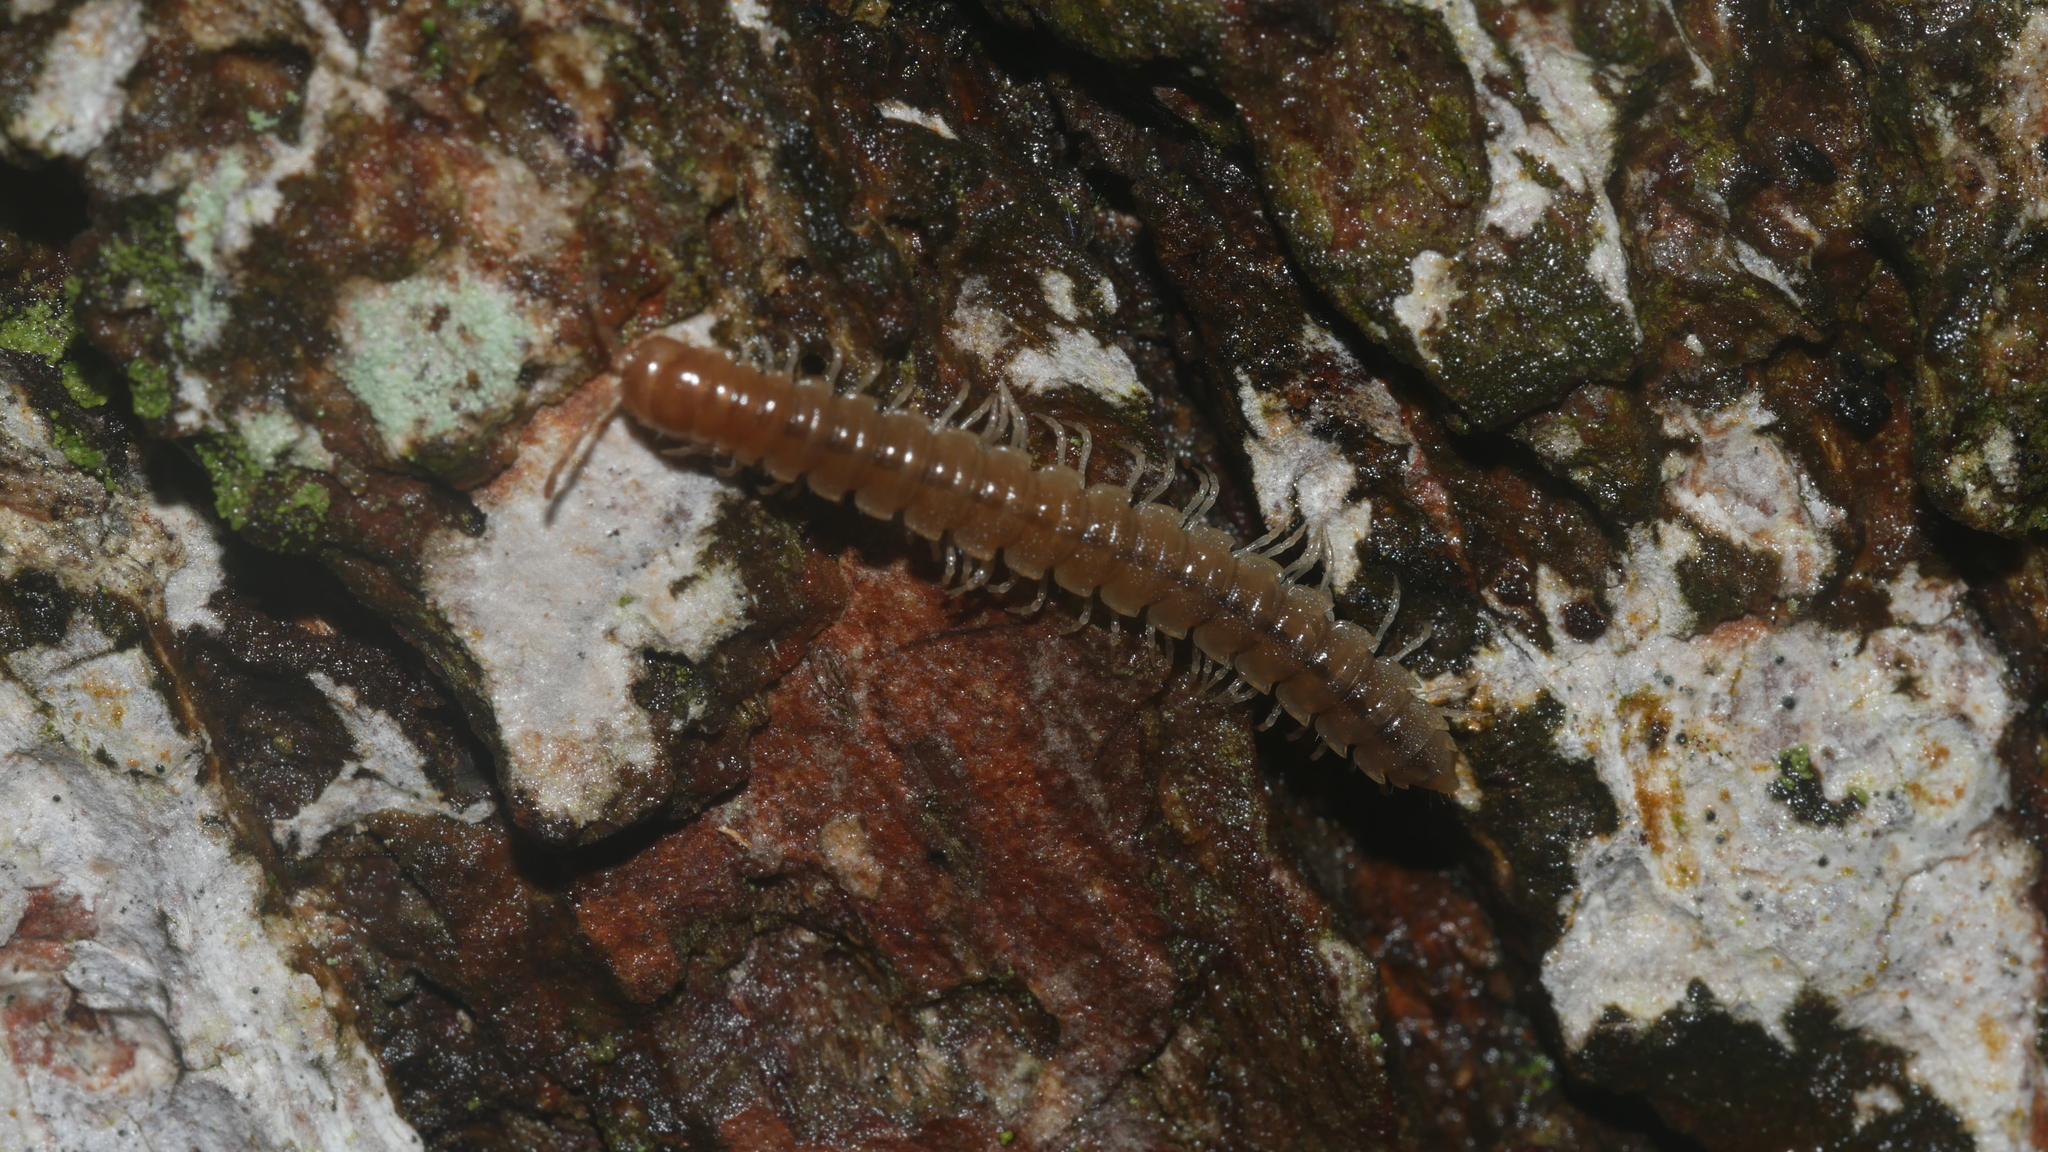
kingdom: Animalia
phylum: Arthropoda
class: Diplopoda
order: Polydesmida
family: Paradoxosomatidae
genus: Oxidus
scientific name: Oxidus gracilis
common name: Greenhouse millipede
